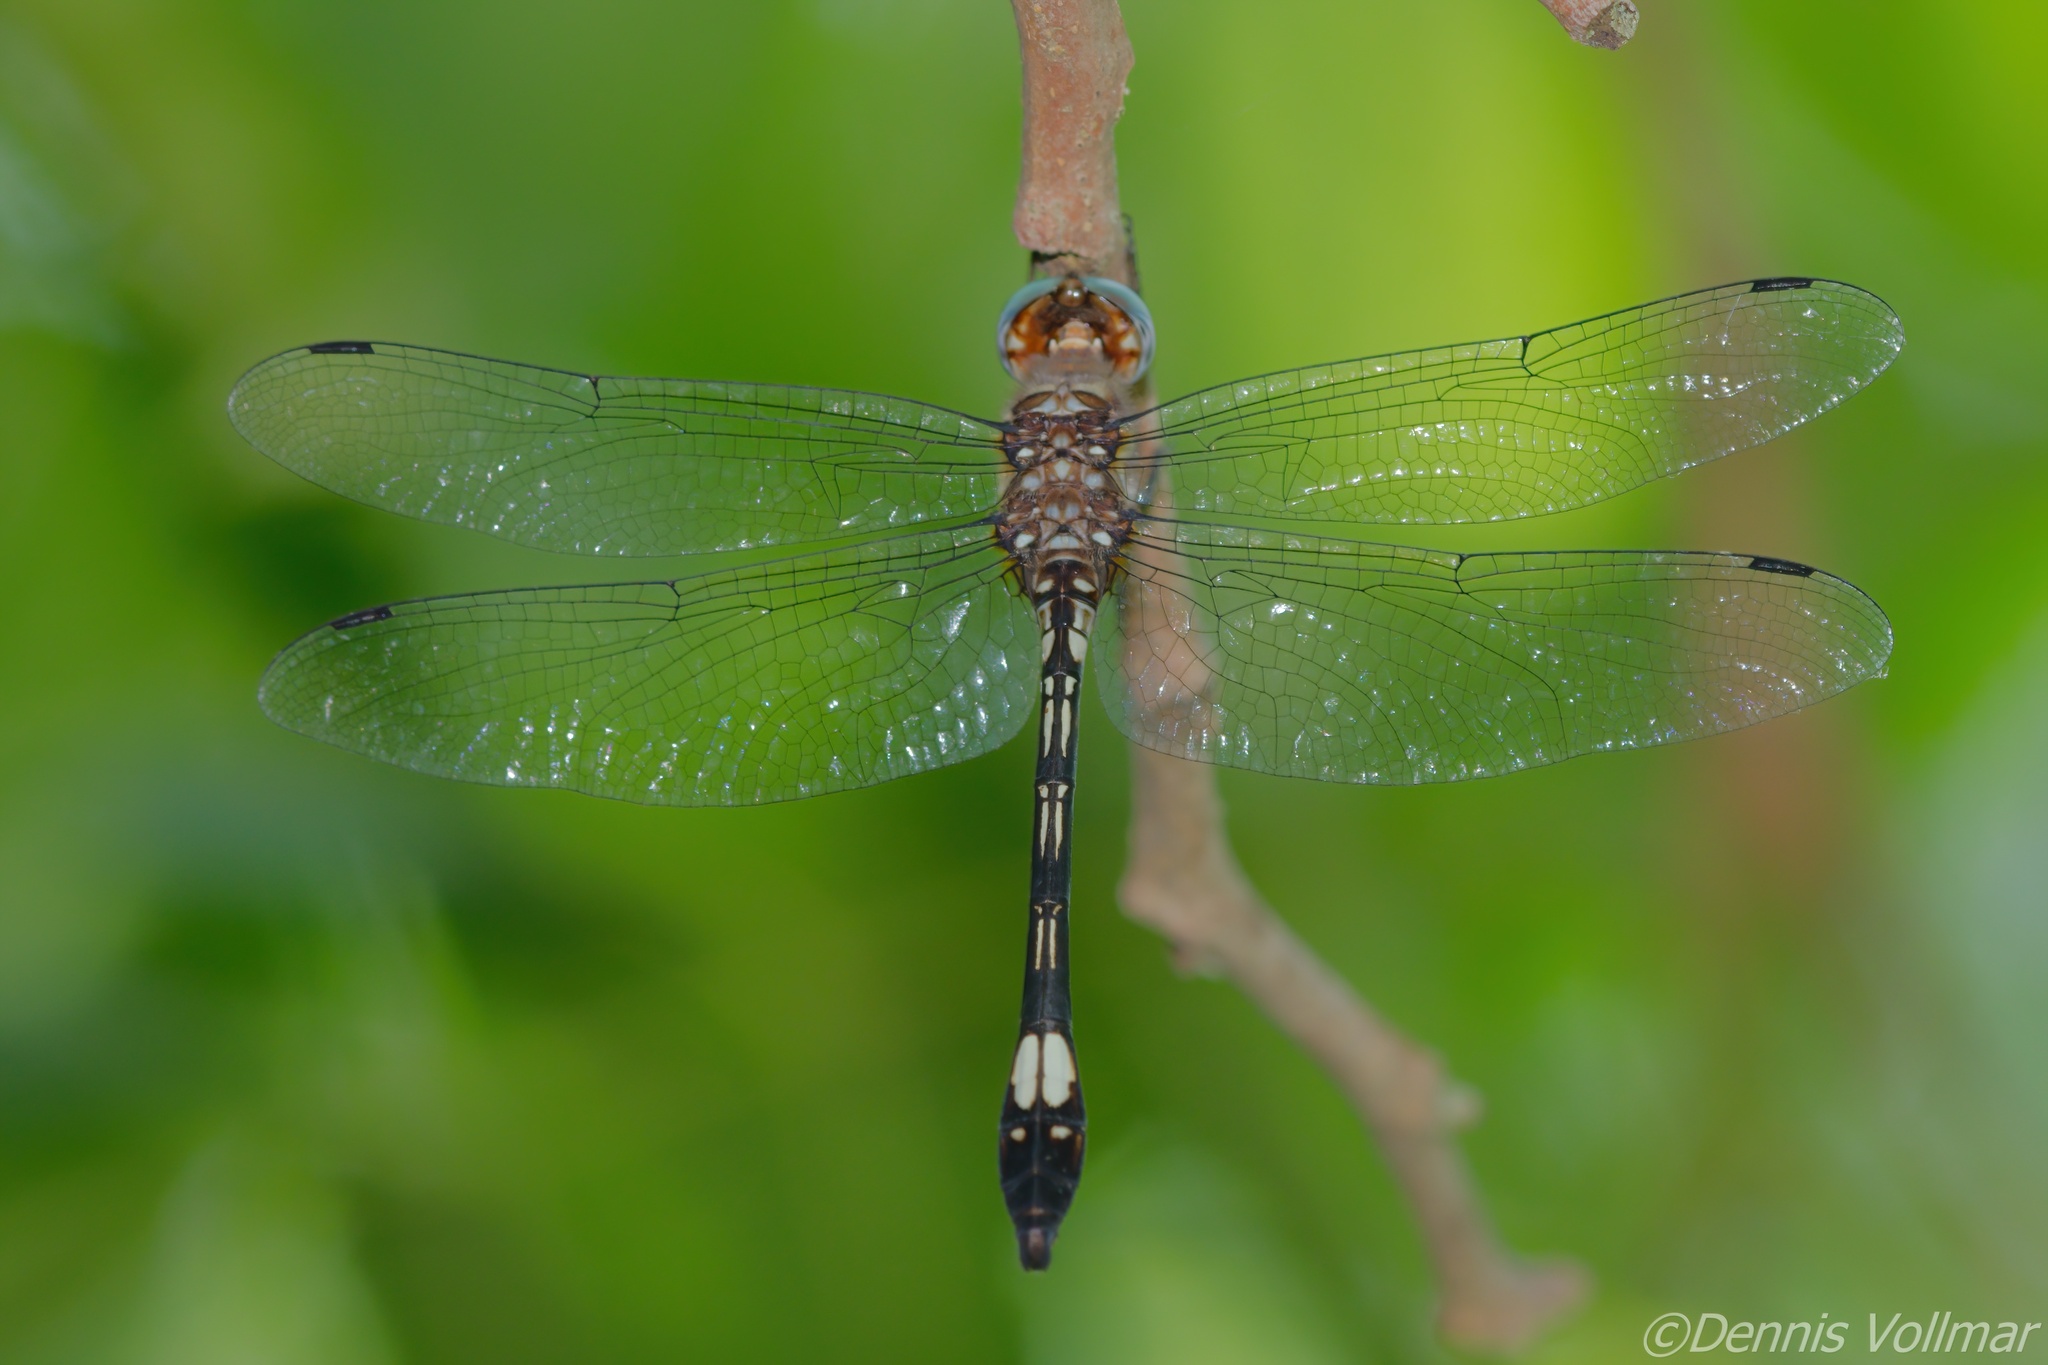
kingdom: Animalia
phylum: Arthropoda
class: Insecta
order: Odonata
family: Libellulidae
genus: Brechmorhoga
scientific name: Brechmorhoga mendax
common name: Pale-faced clubskimmer
